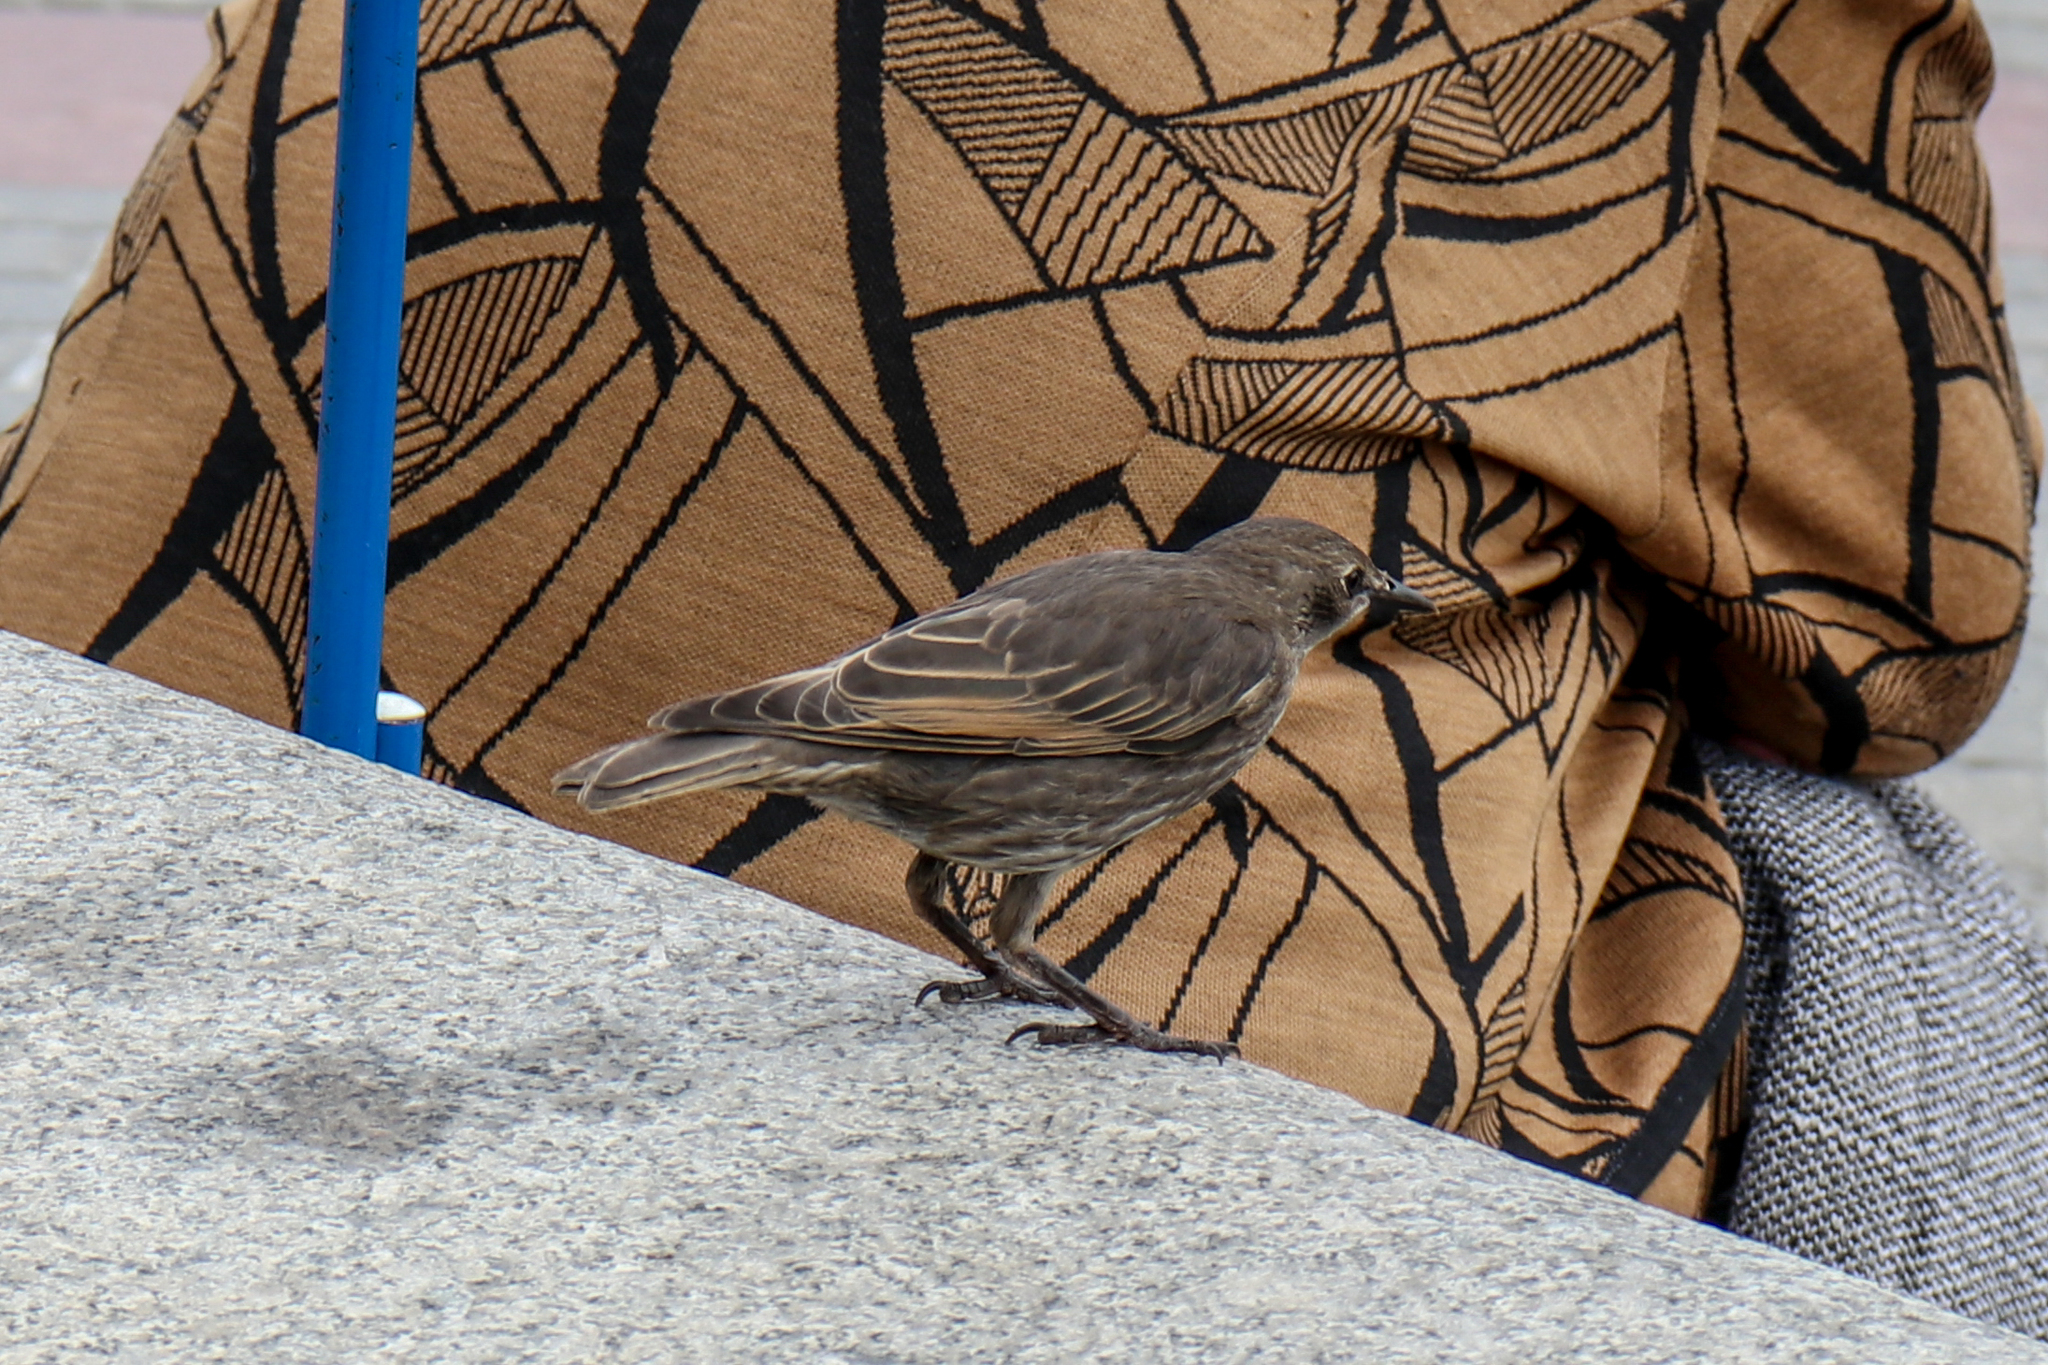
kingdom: Animalia
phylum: Chordata
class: Aves
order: Passeriformes
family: Sturnidae
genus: Sturnus
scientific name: Sturnus vulgaris
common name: Common starling
